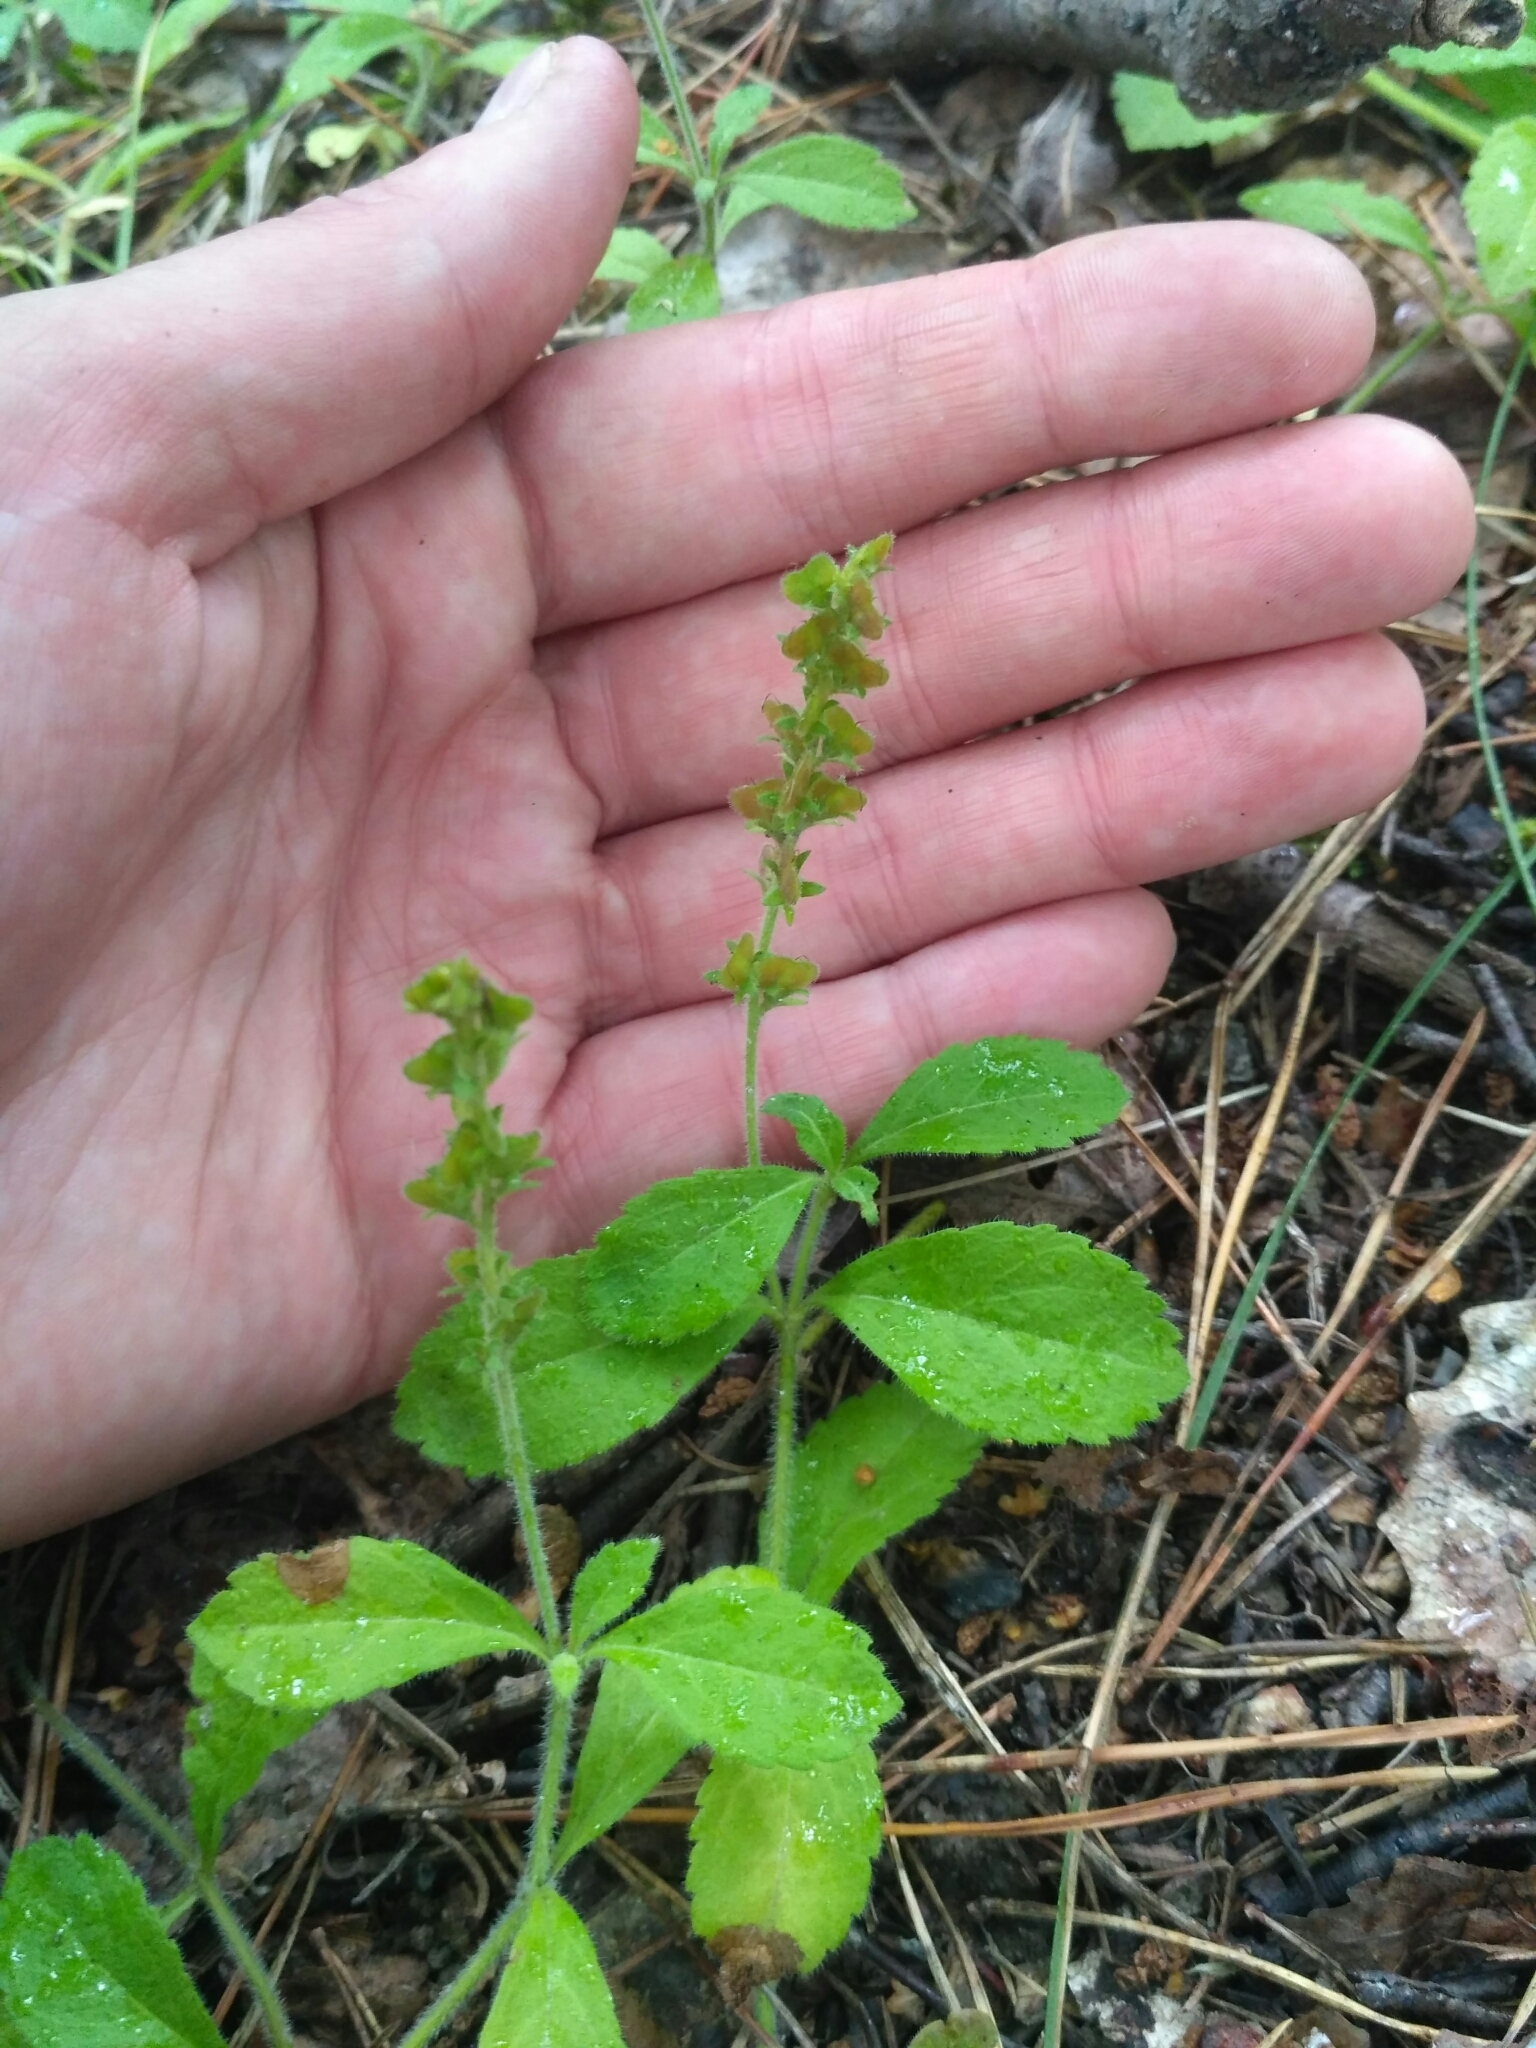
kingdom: Plantae
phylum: Tracheophyta
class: Magnoliopsida
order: Lamiales
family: Plantaginaceae
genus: Veronica
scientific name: Veronica officinalis
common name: Common speedwell
